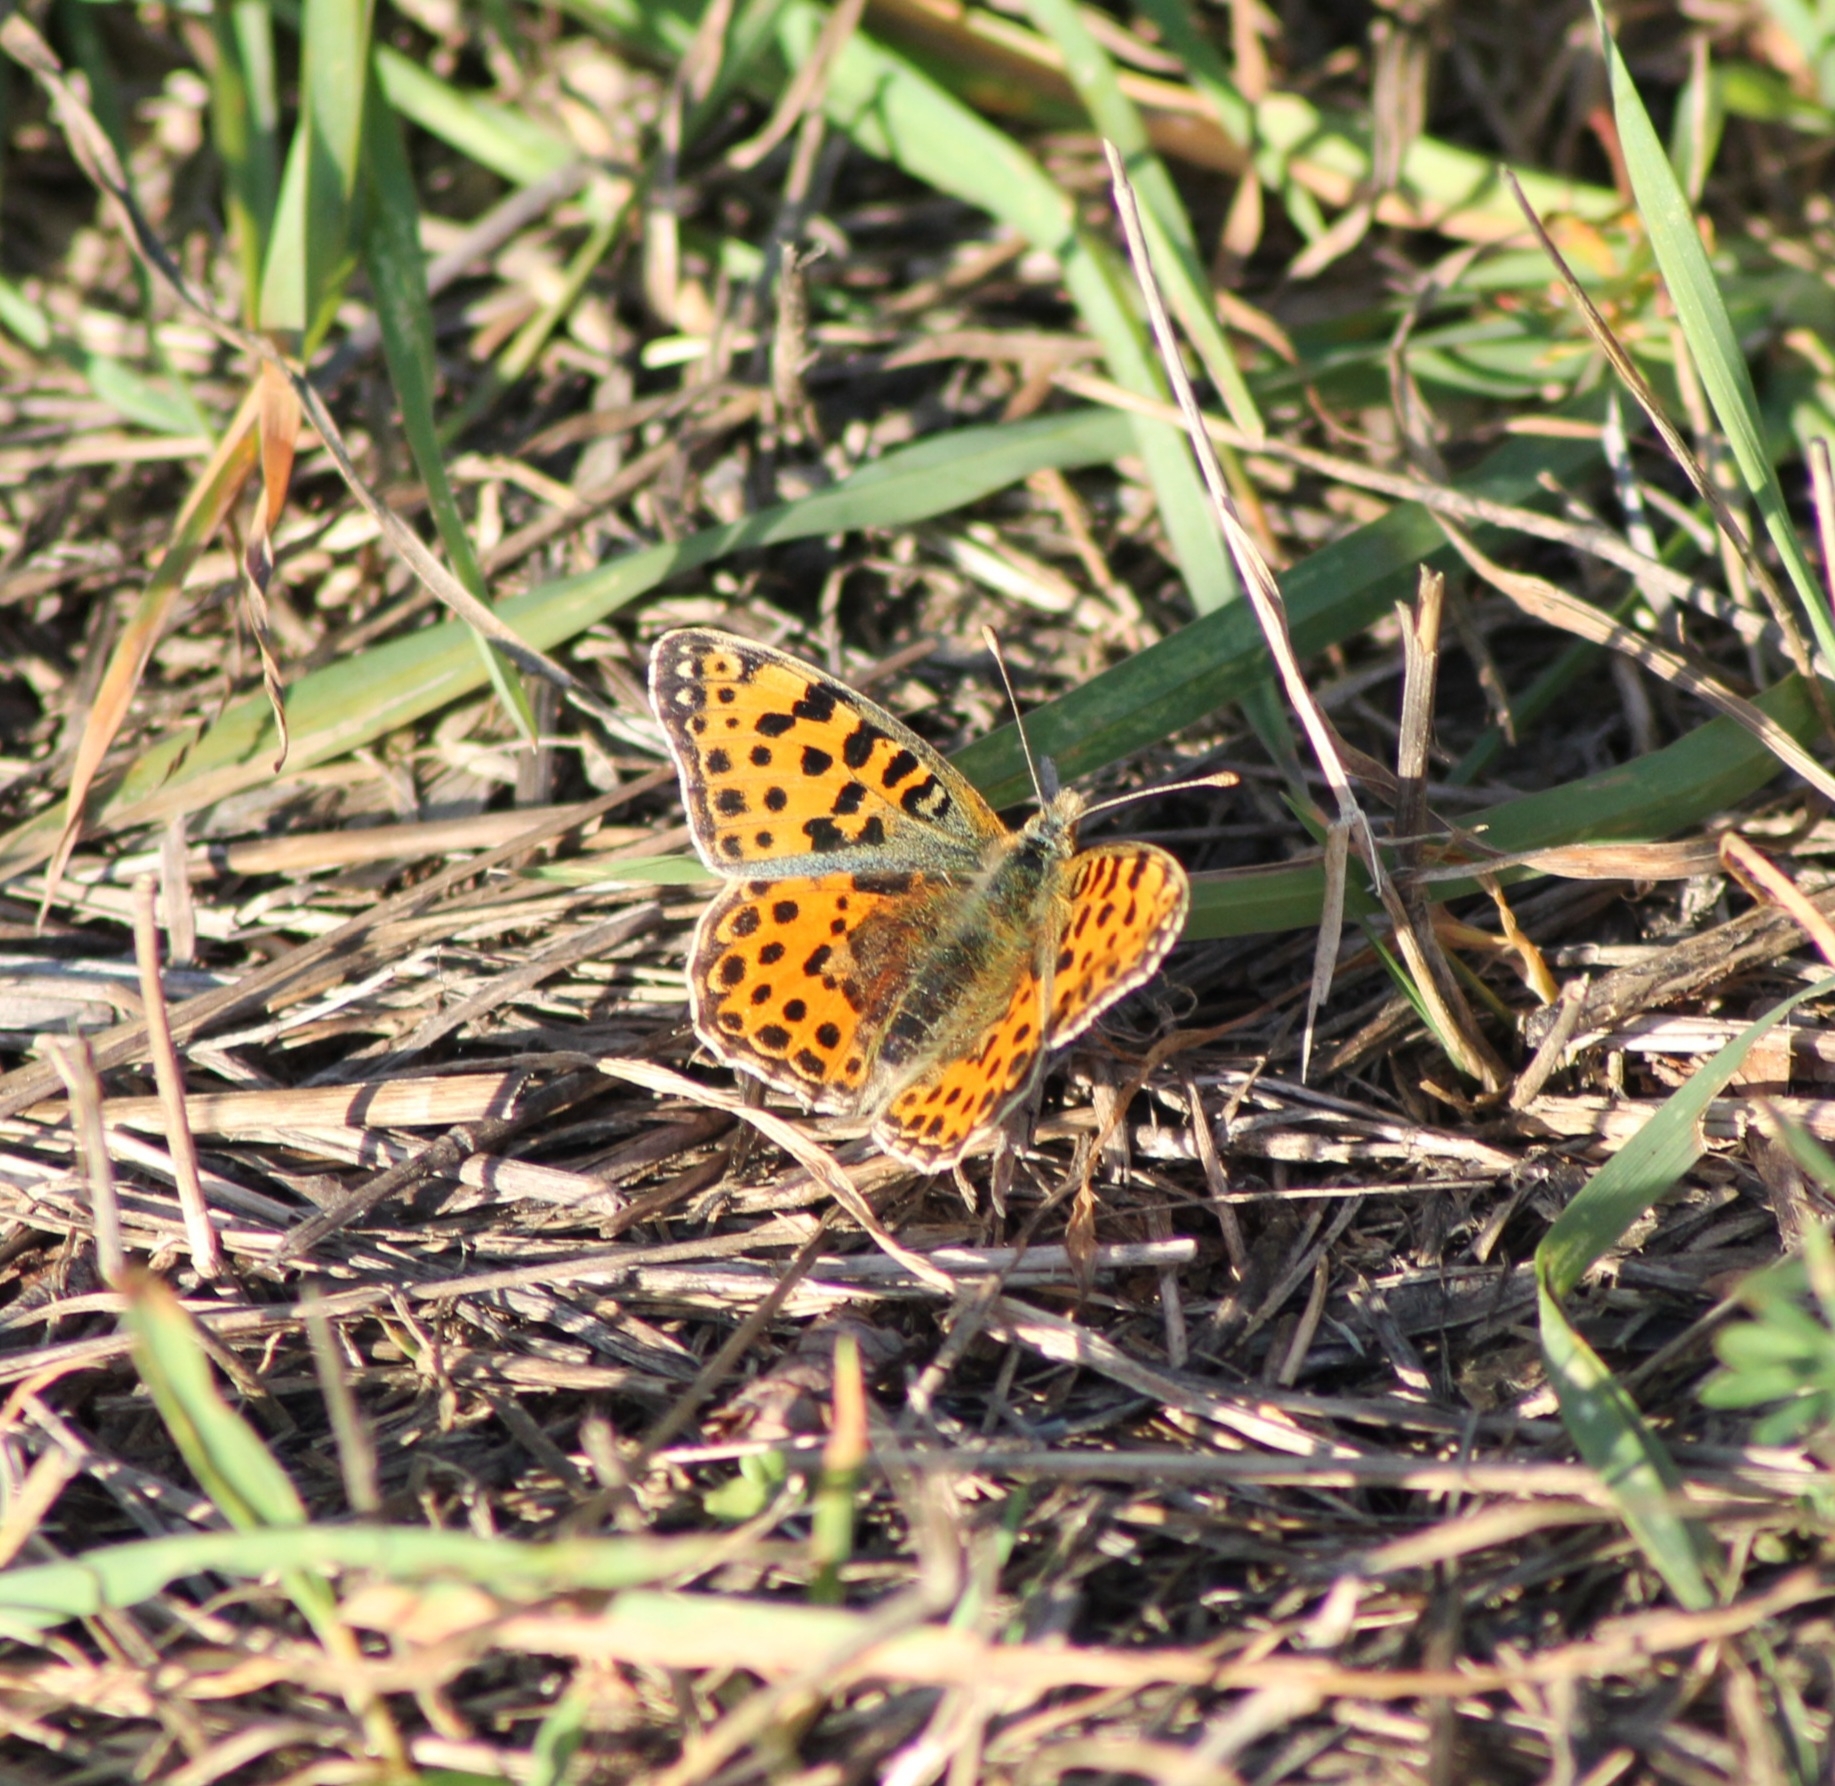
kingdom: Animalia
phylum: Arthropoda
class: Insecta
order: Lepidoptera
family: Nymphalidae
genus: Issoria
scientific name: Issoria lathonia
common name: Queen of spain fritillary
